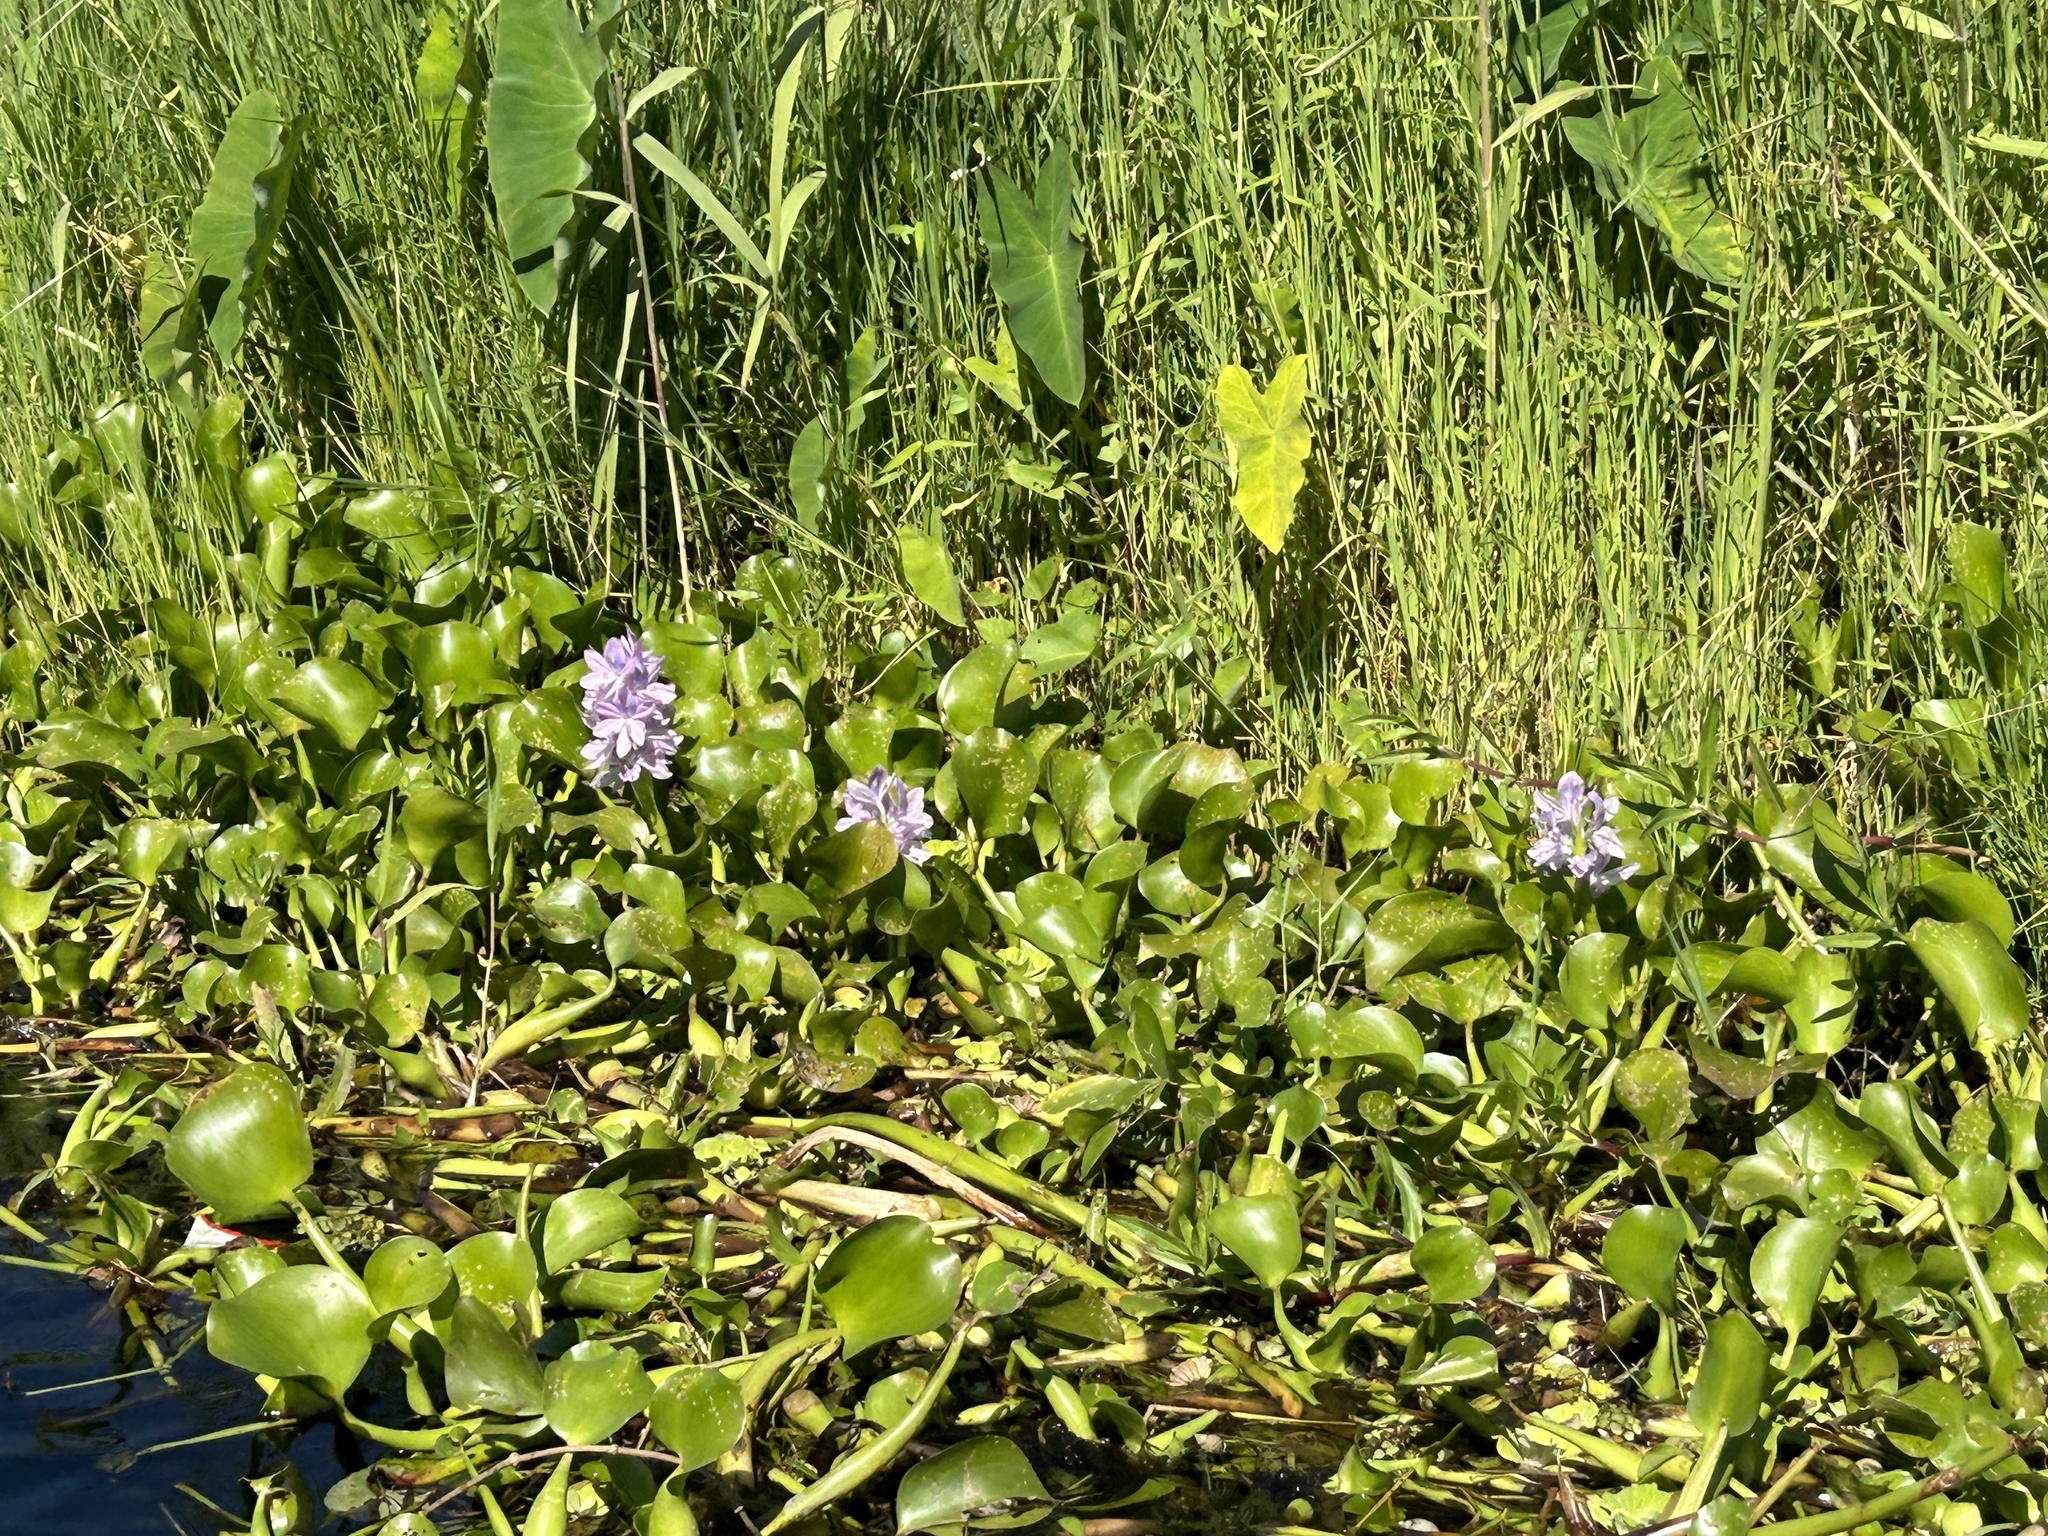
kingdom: Plantae
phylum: Tracheophyta
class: Liliopsida
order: Commelinales
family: Pontederiaceae
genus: Pontederia
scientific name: Pontederia crassipes
